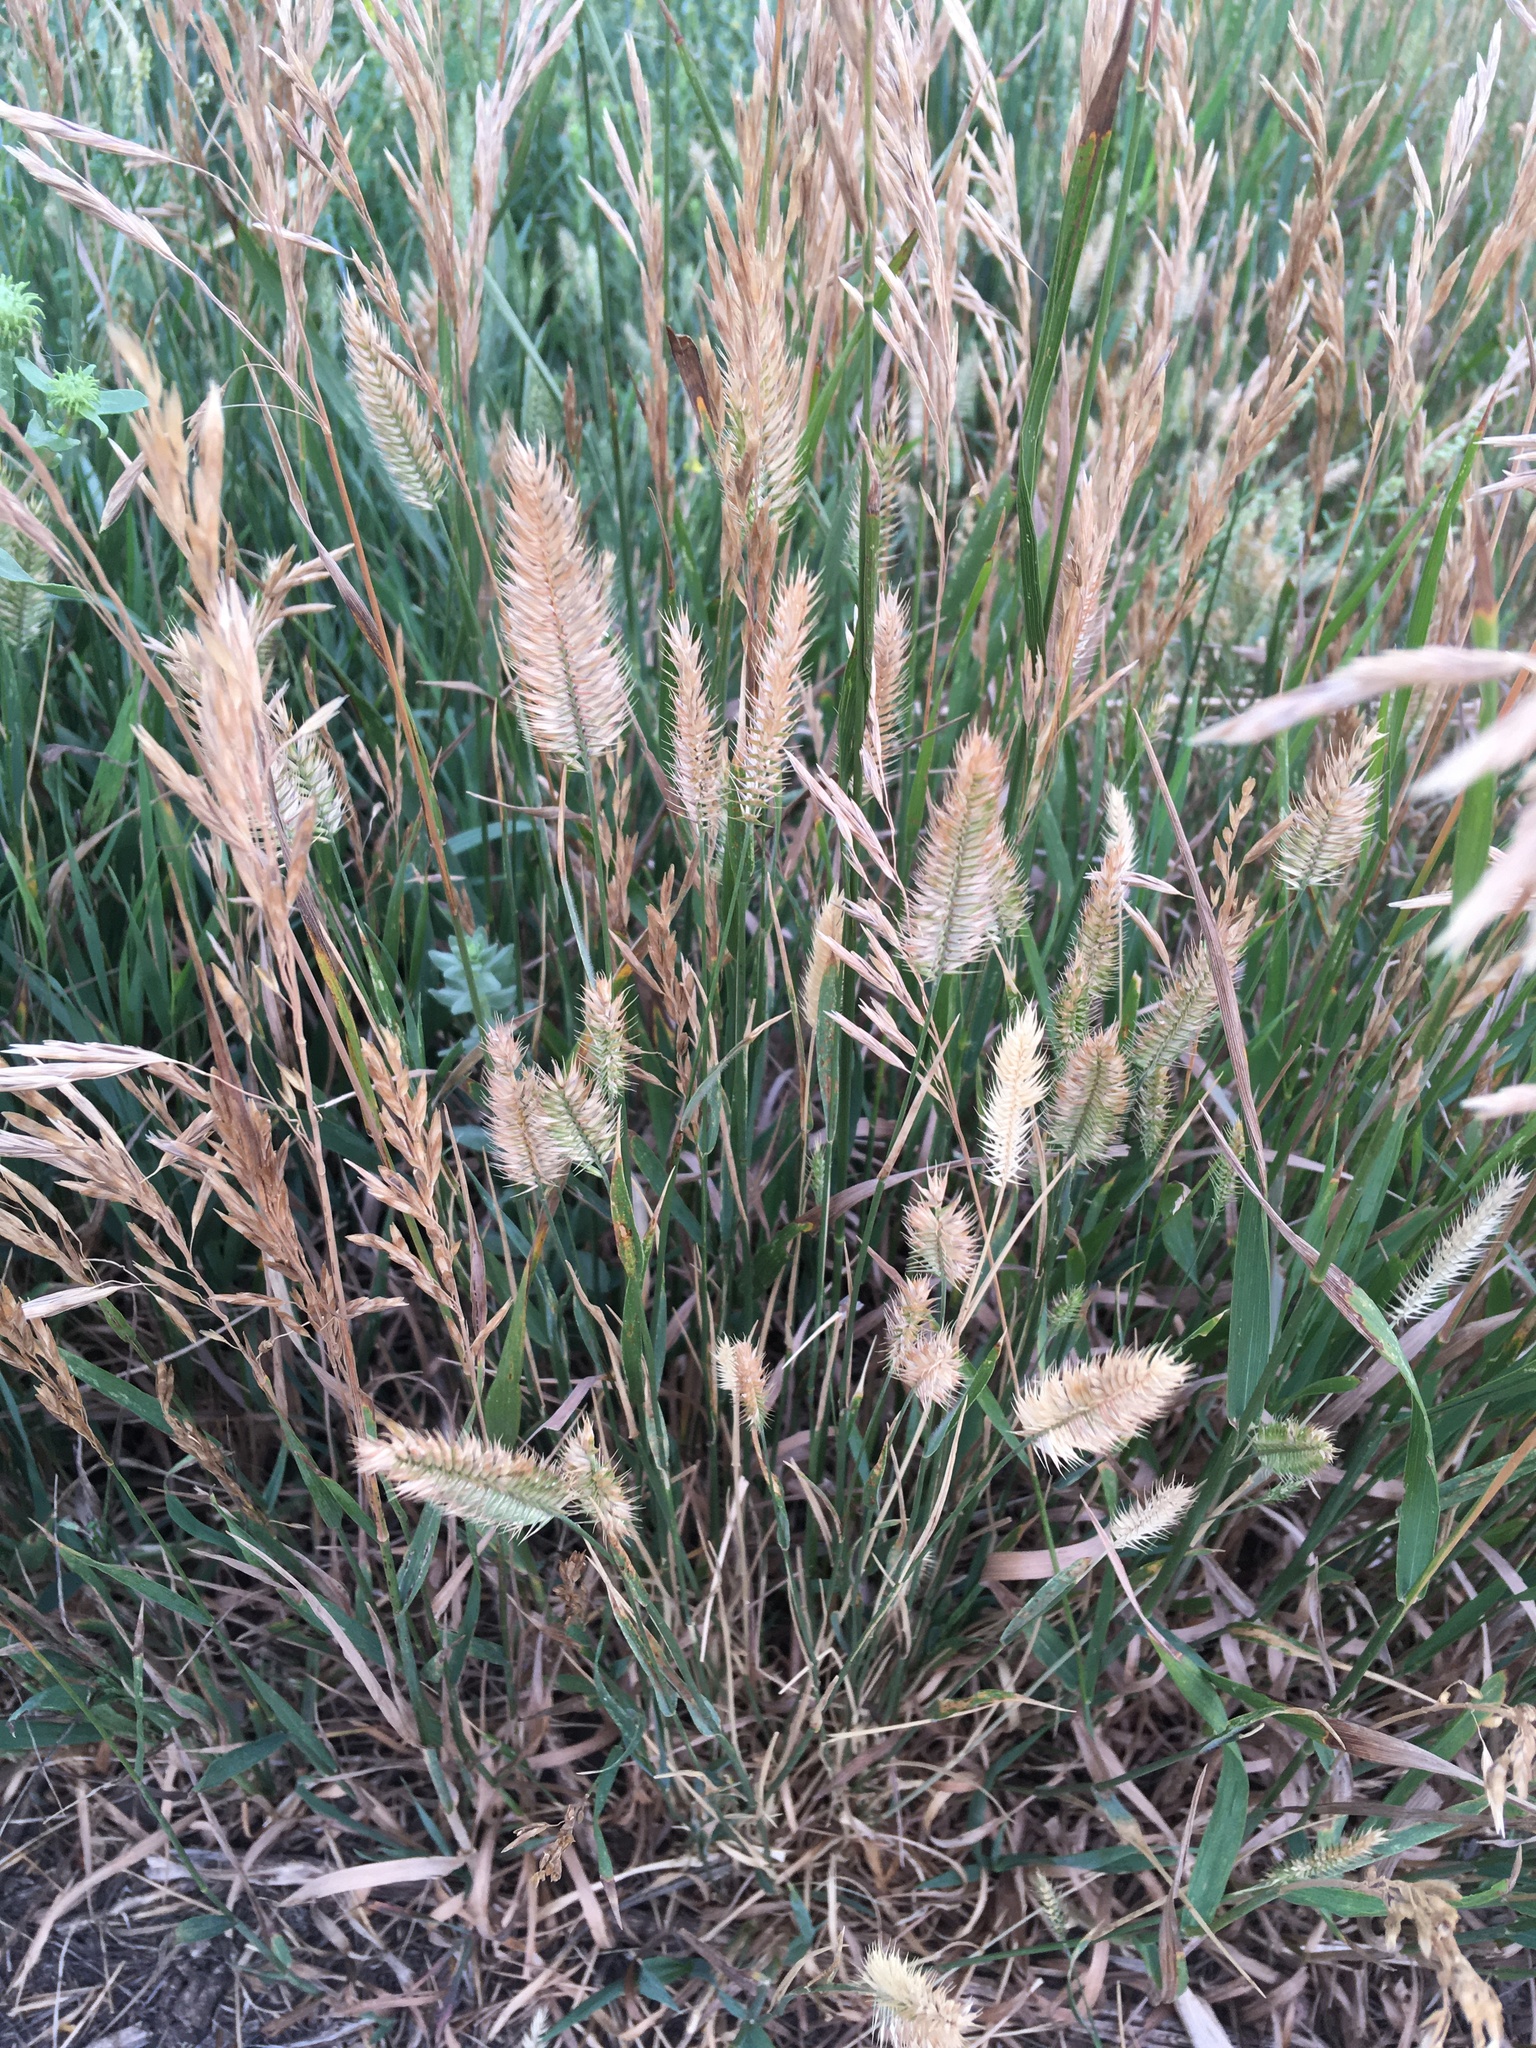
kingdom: Plantae
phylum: Tracheophyta
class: Liliopsida
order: Poales
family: Poaceae
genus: Agropyron
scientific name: Agropyron cristatum
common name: Crested wheatgrass
